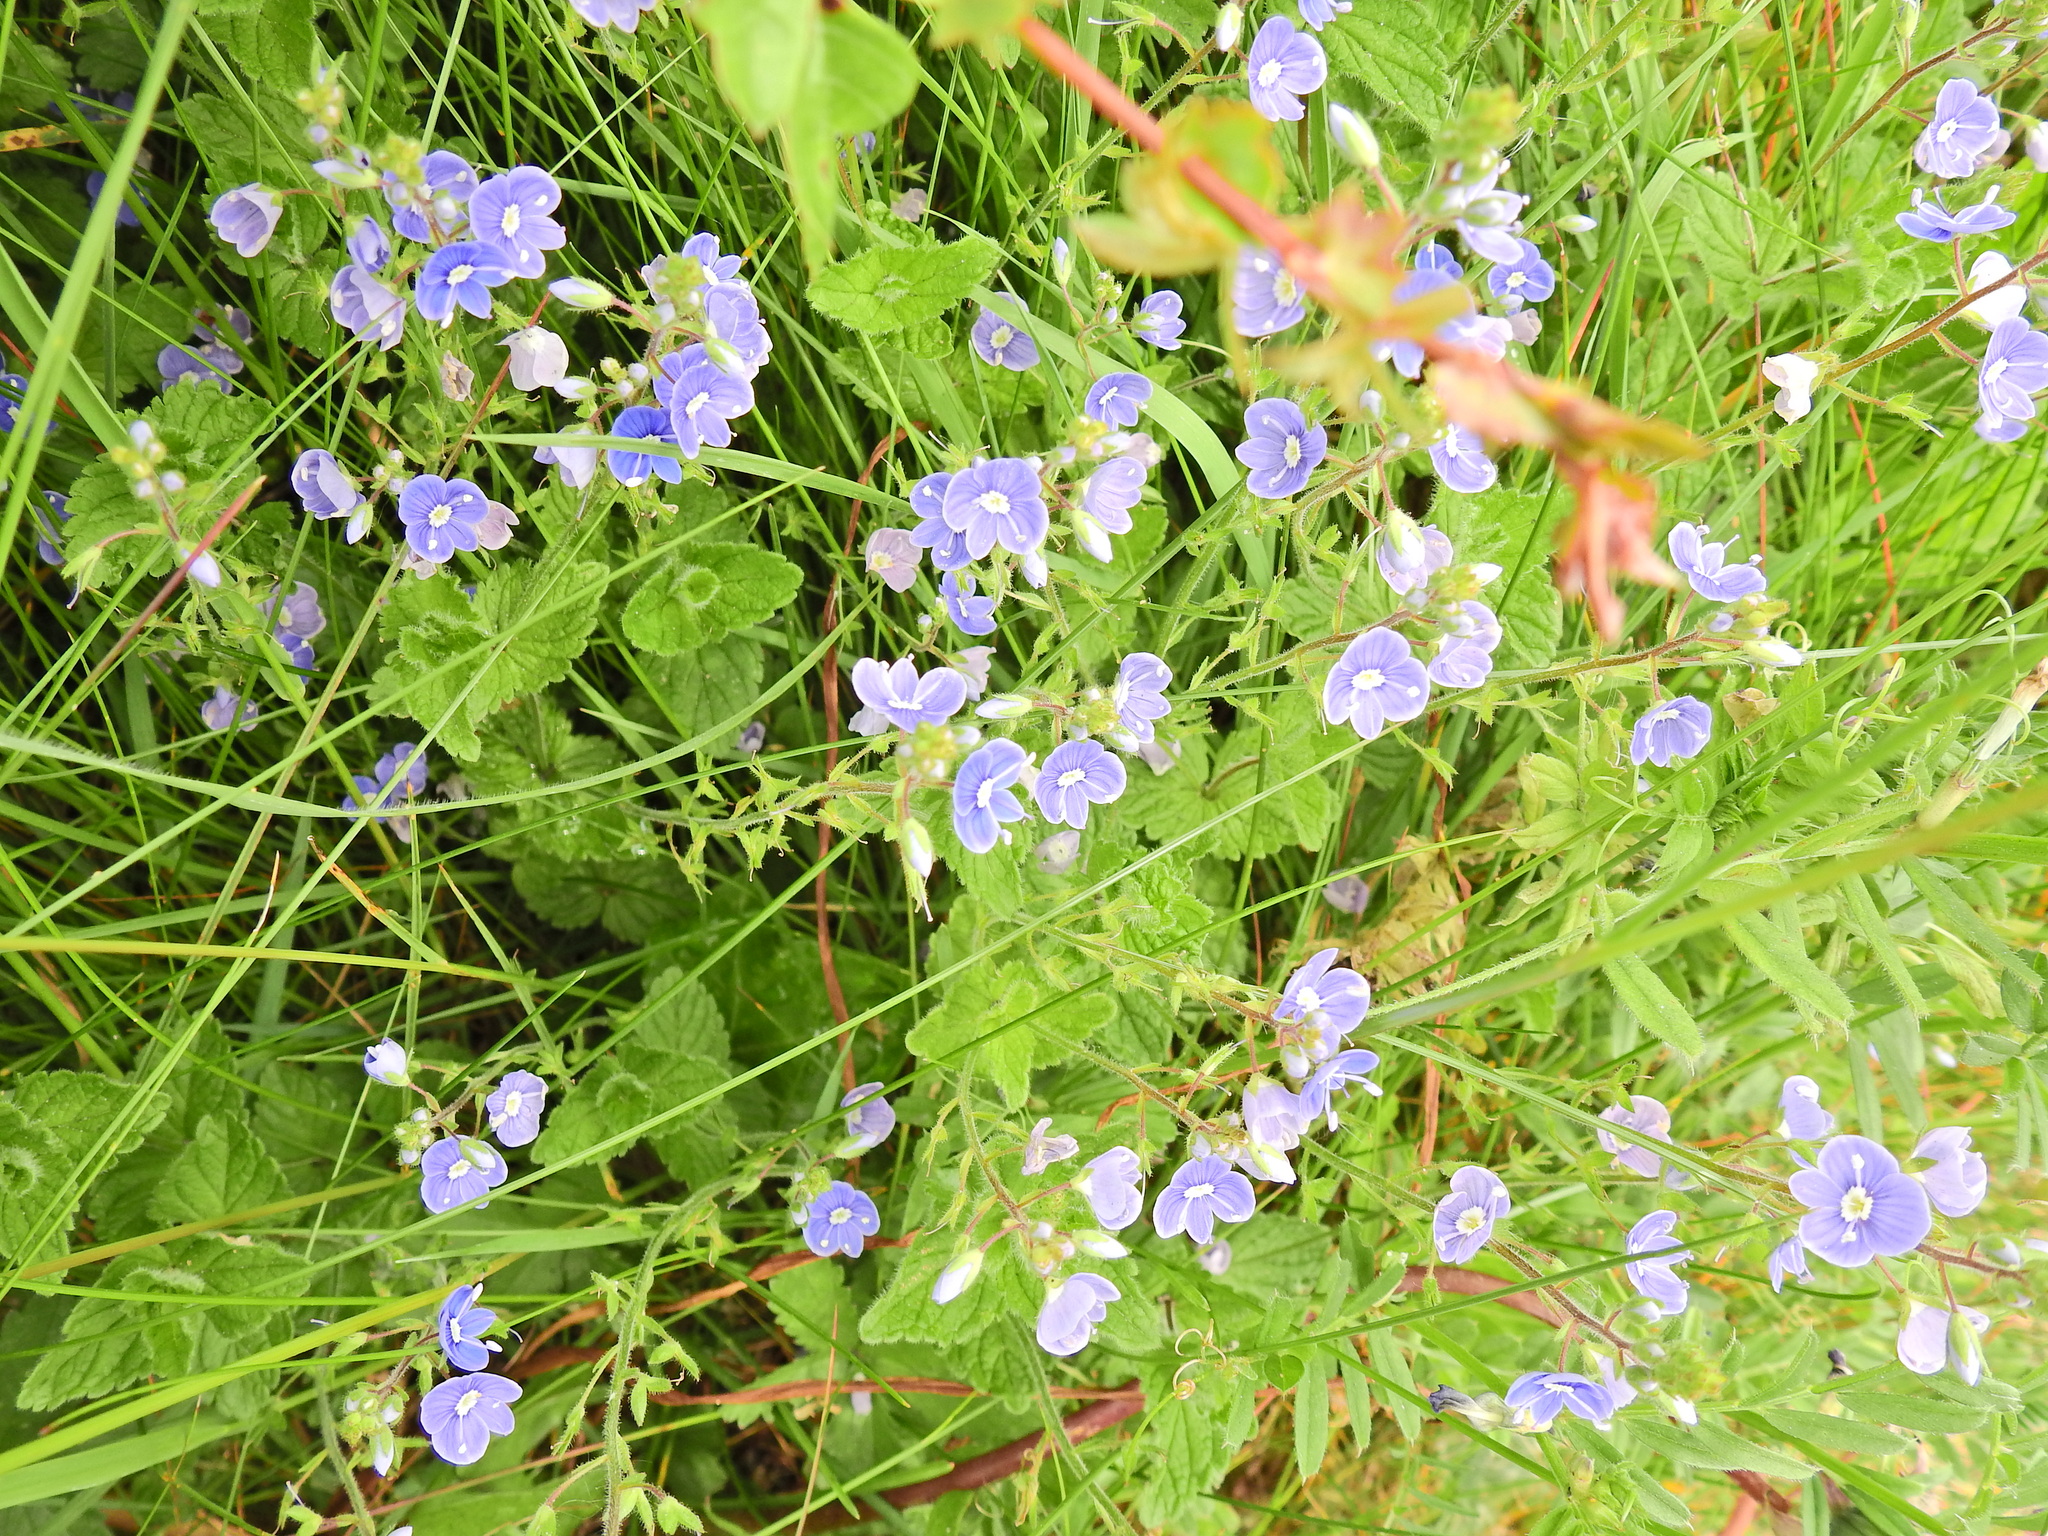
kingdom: Plantae
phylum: Tracheophyta
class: Magnoliopsida
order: Lamiales
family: Plantaginaceae
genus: Veronica
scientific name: Veronica chamaedrys
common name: Germander speedwell
